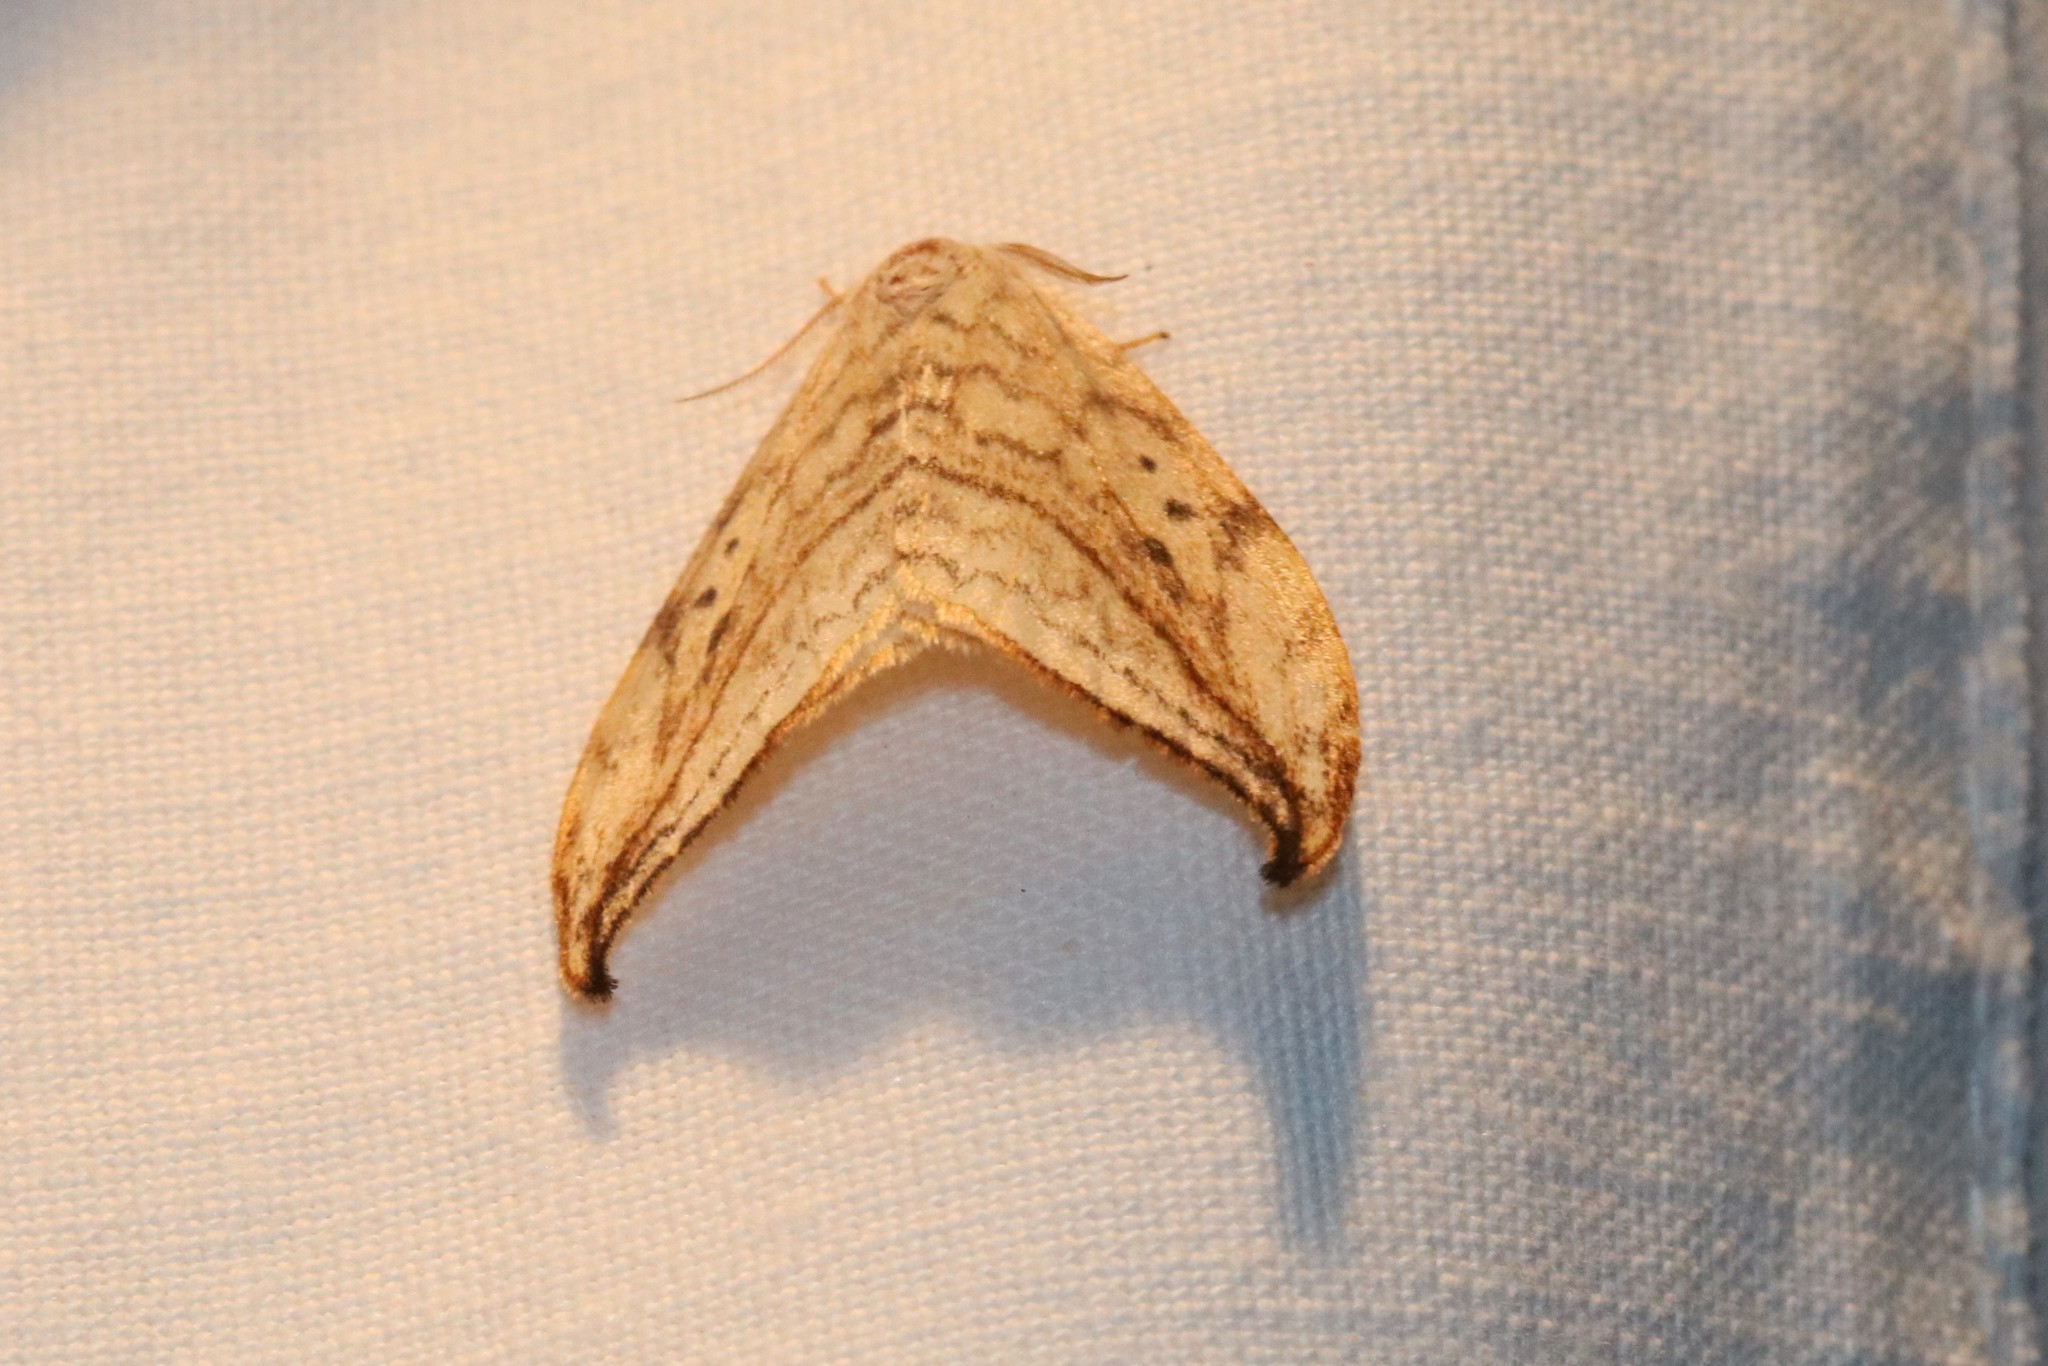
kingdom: Animalia
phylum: Arthropoda
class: Insecta
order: Lepidoptera
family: Drepanidae
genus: Drepana
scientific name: Drepana arcuata
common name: Arched hooktip moth
